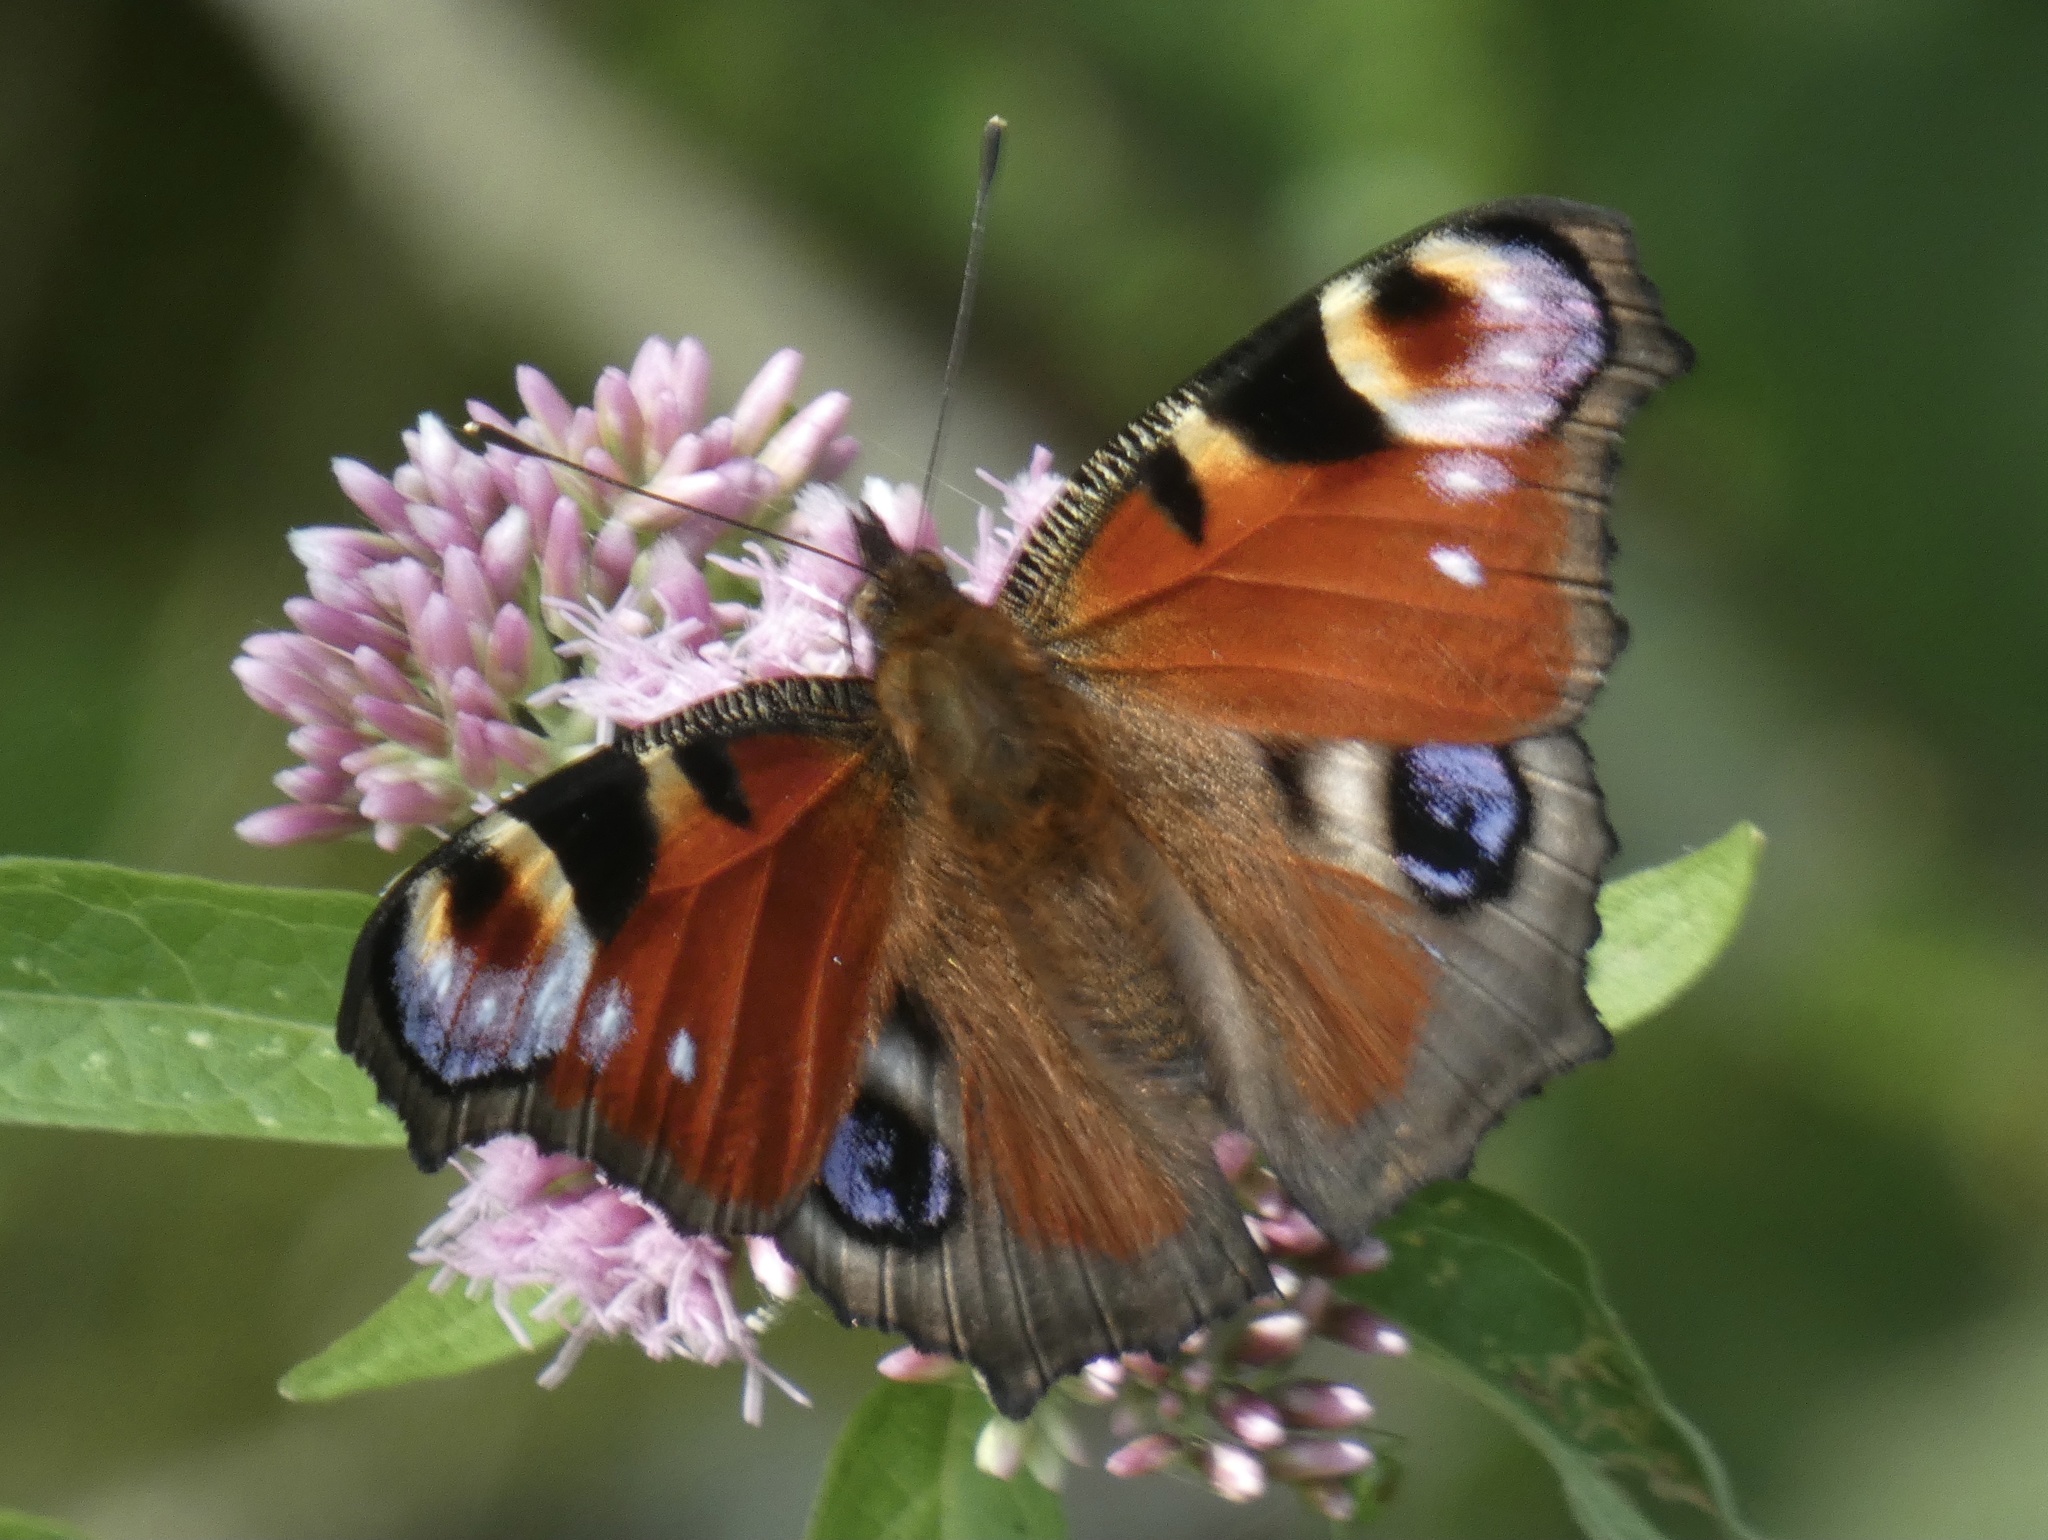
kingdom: Animalia
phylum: Arthropoda
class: Insecta
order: Lepidoptera
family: Nymphalidae
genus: Aglais
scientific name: Aglais io
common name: Peacock
